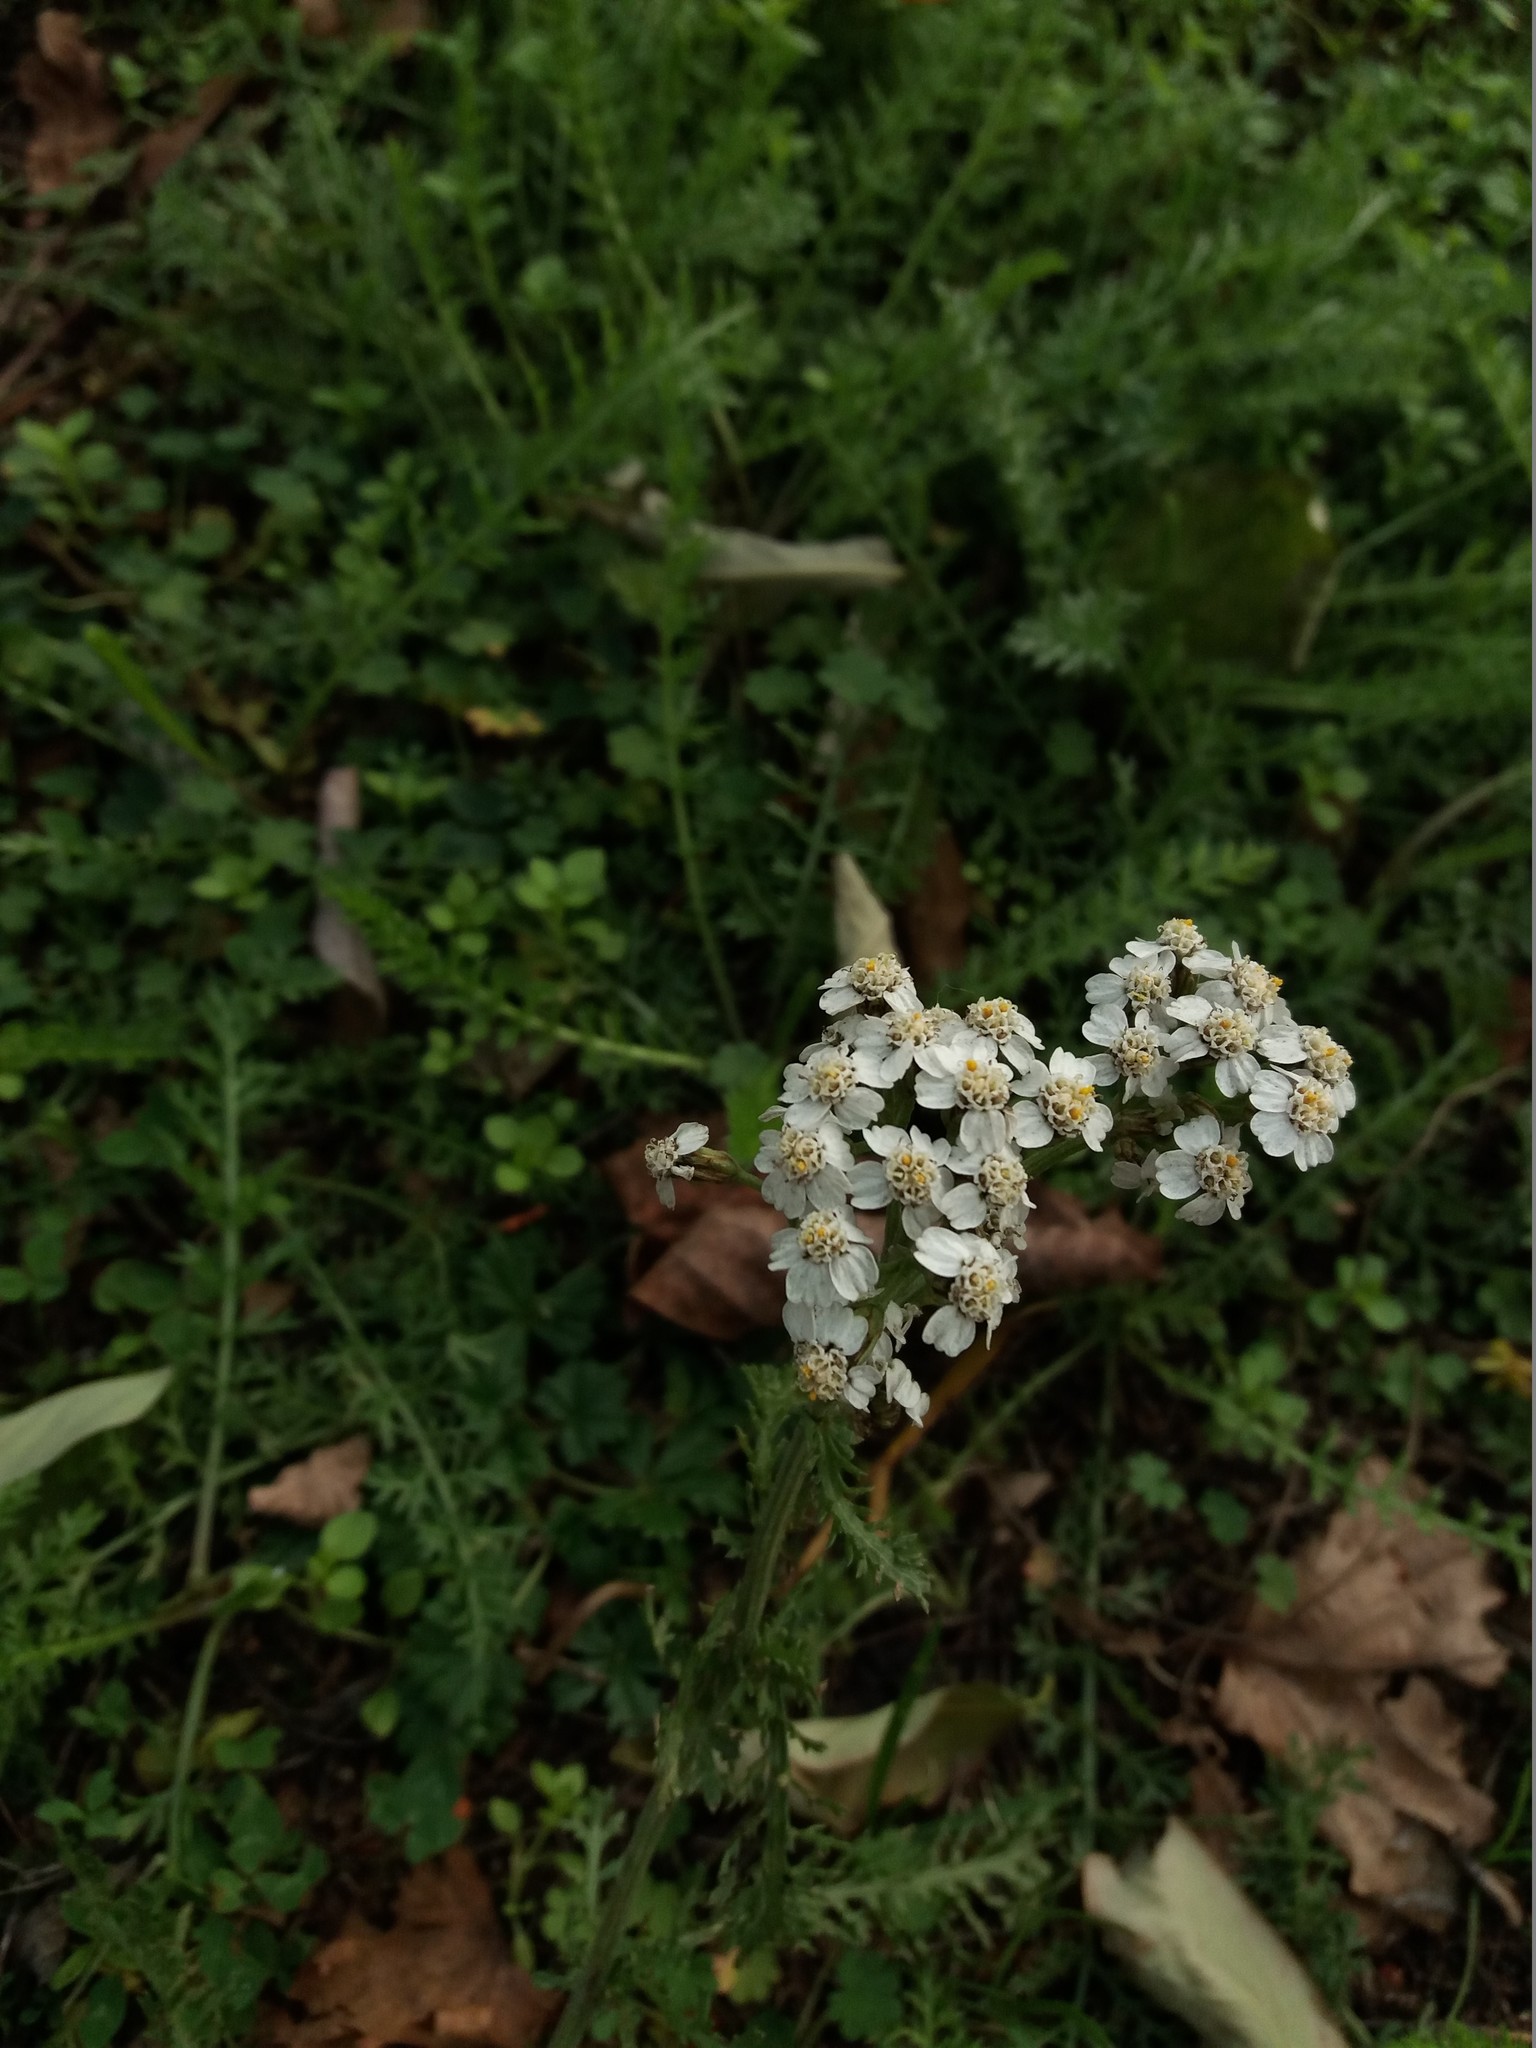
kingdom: Plantae
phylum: Tracheophyta
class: Magnoliopsida
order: Asterales
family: Asteraceae
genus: Achillea
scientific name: Achillea millefolium
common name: Yarrow
